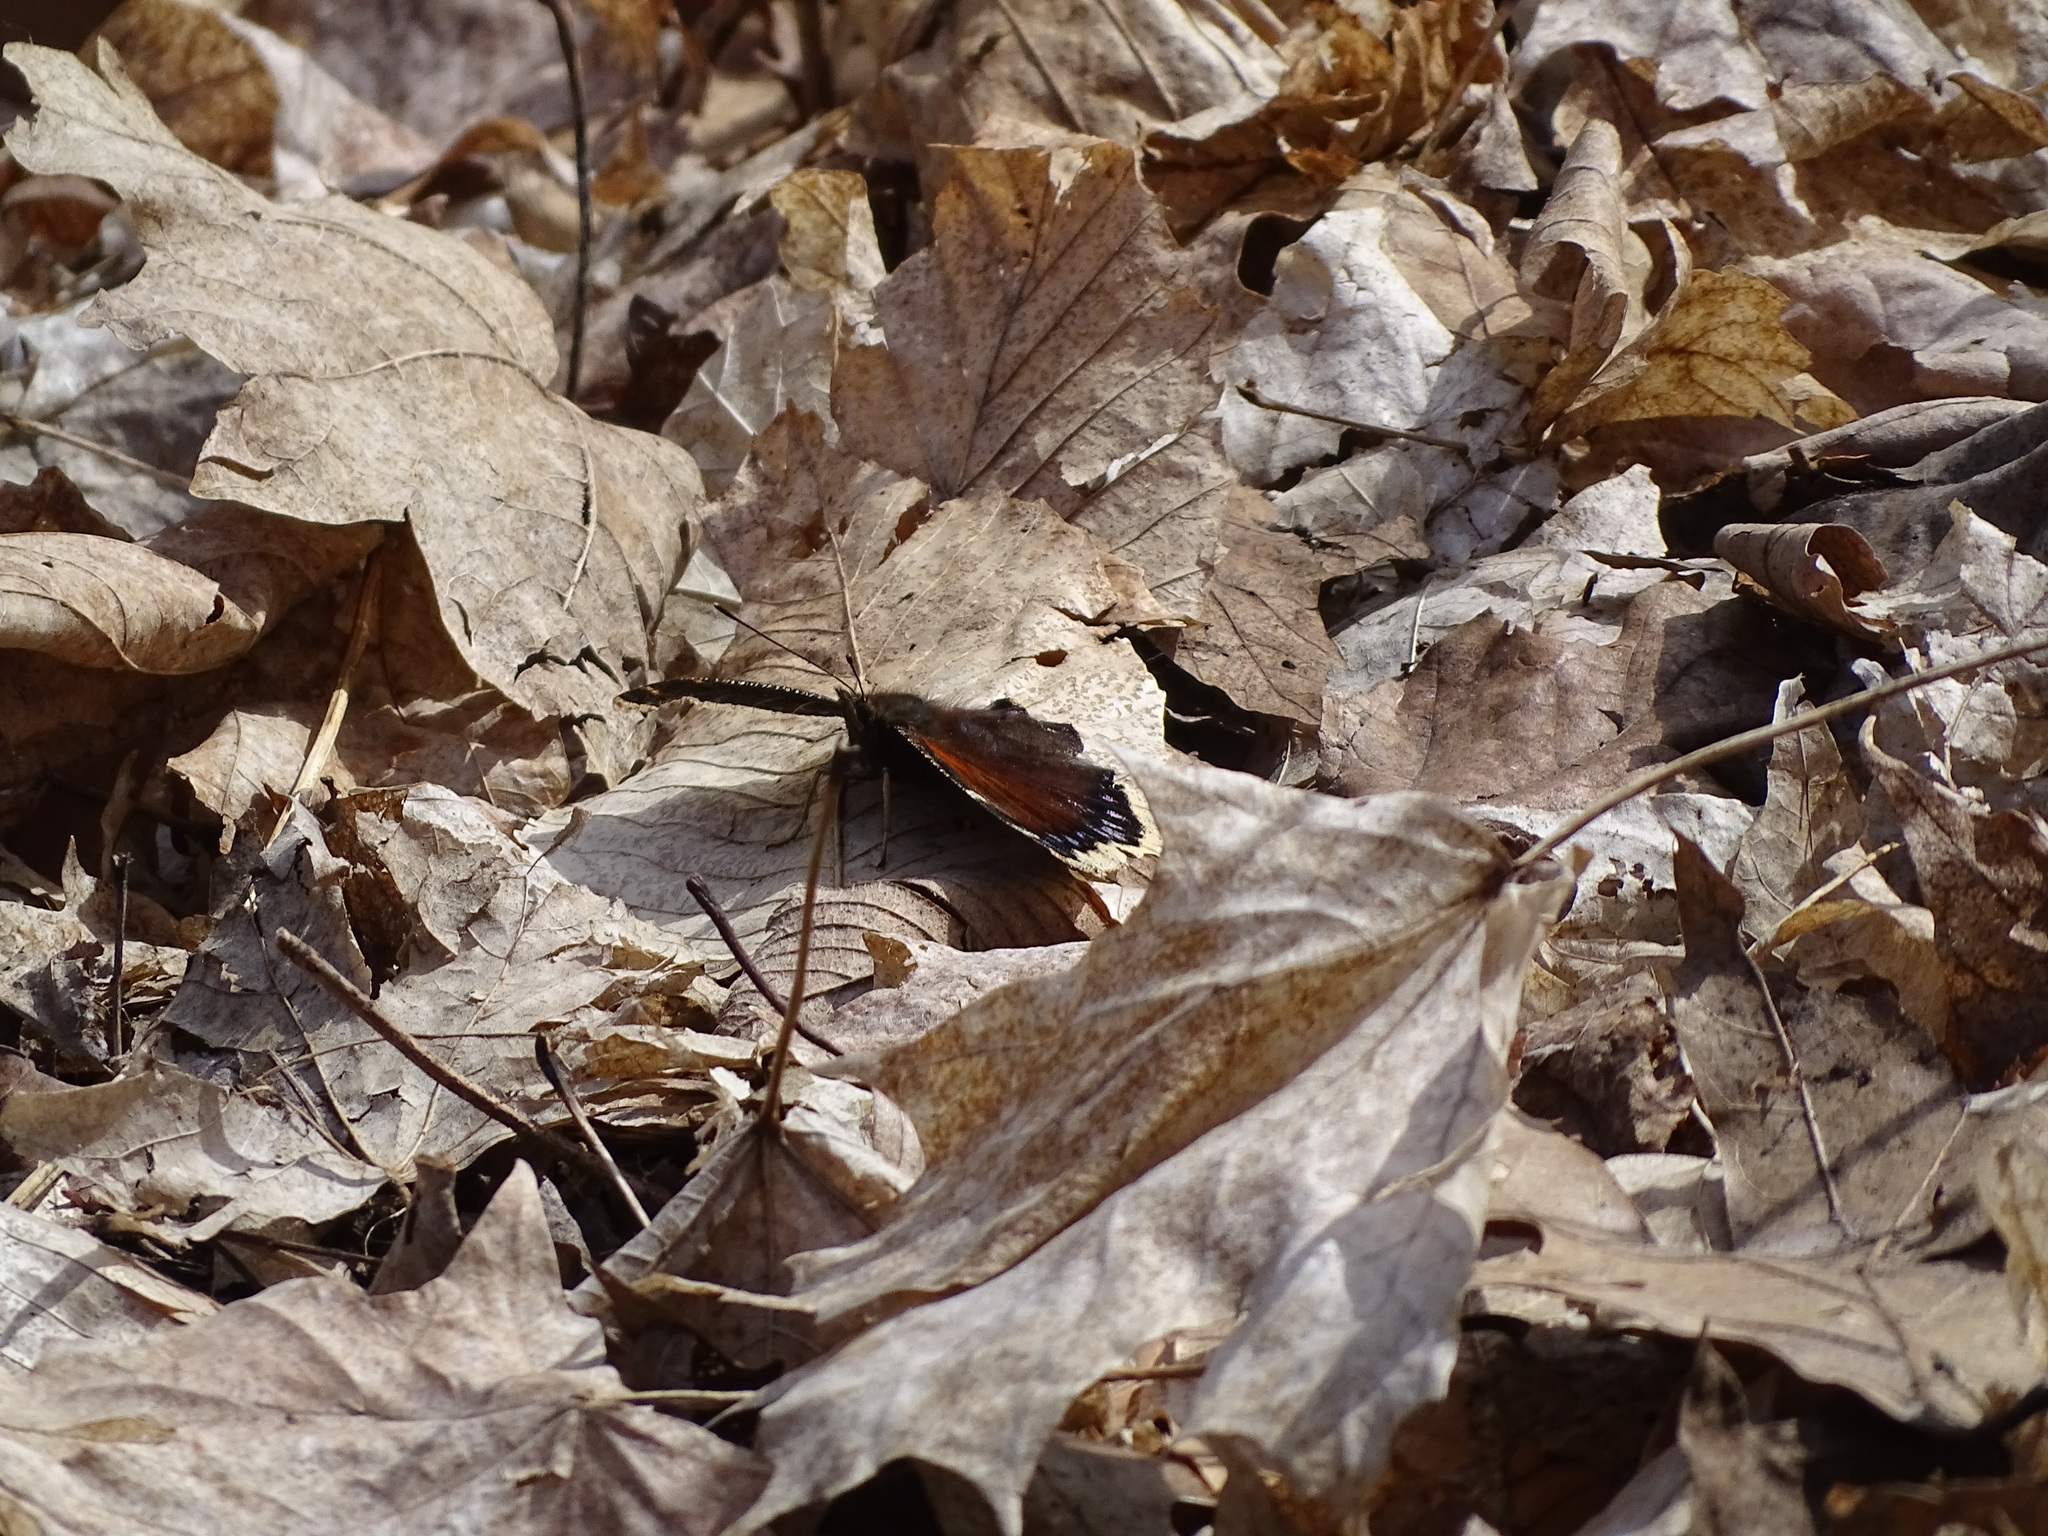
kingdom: Animalia
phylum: Arthropoda
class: Insecta
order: Lepidoptera
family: Nymphalidae
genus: Nymphalis
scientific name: Nymphalis antiopa
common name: Camberwell beauty
